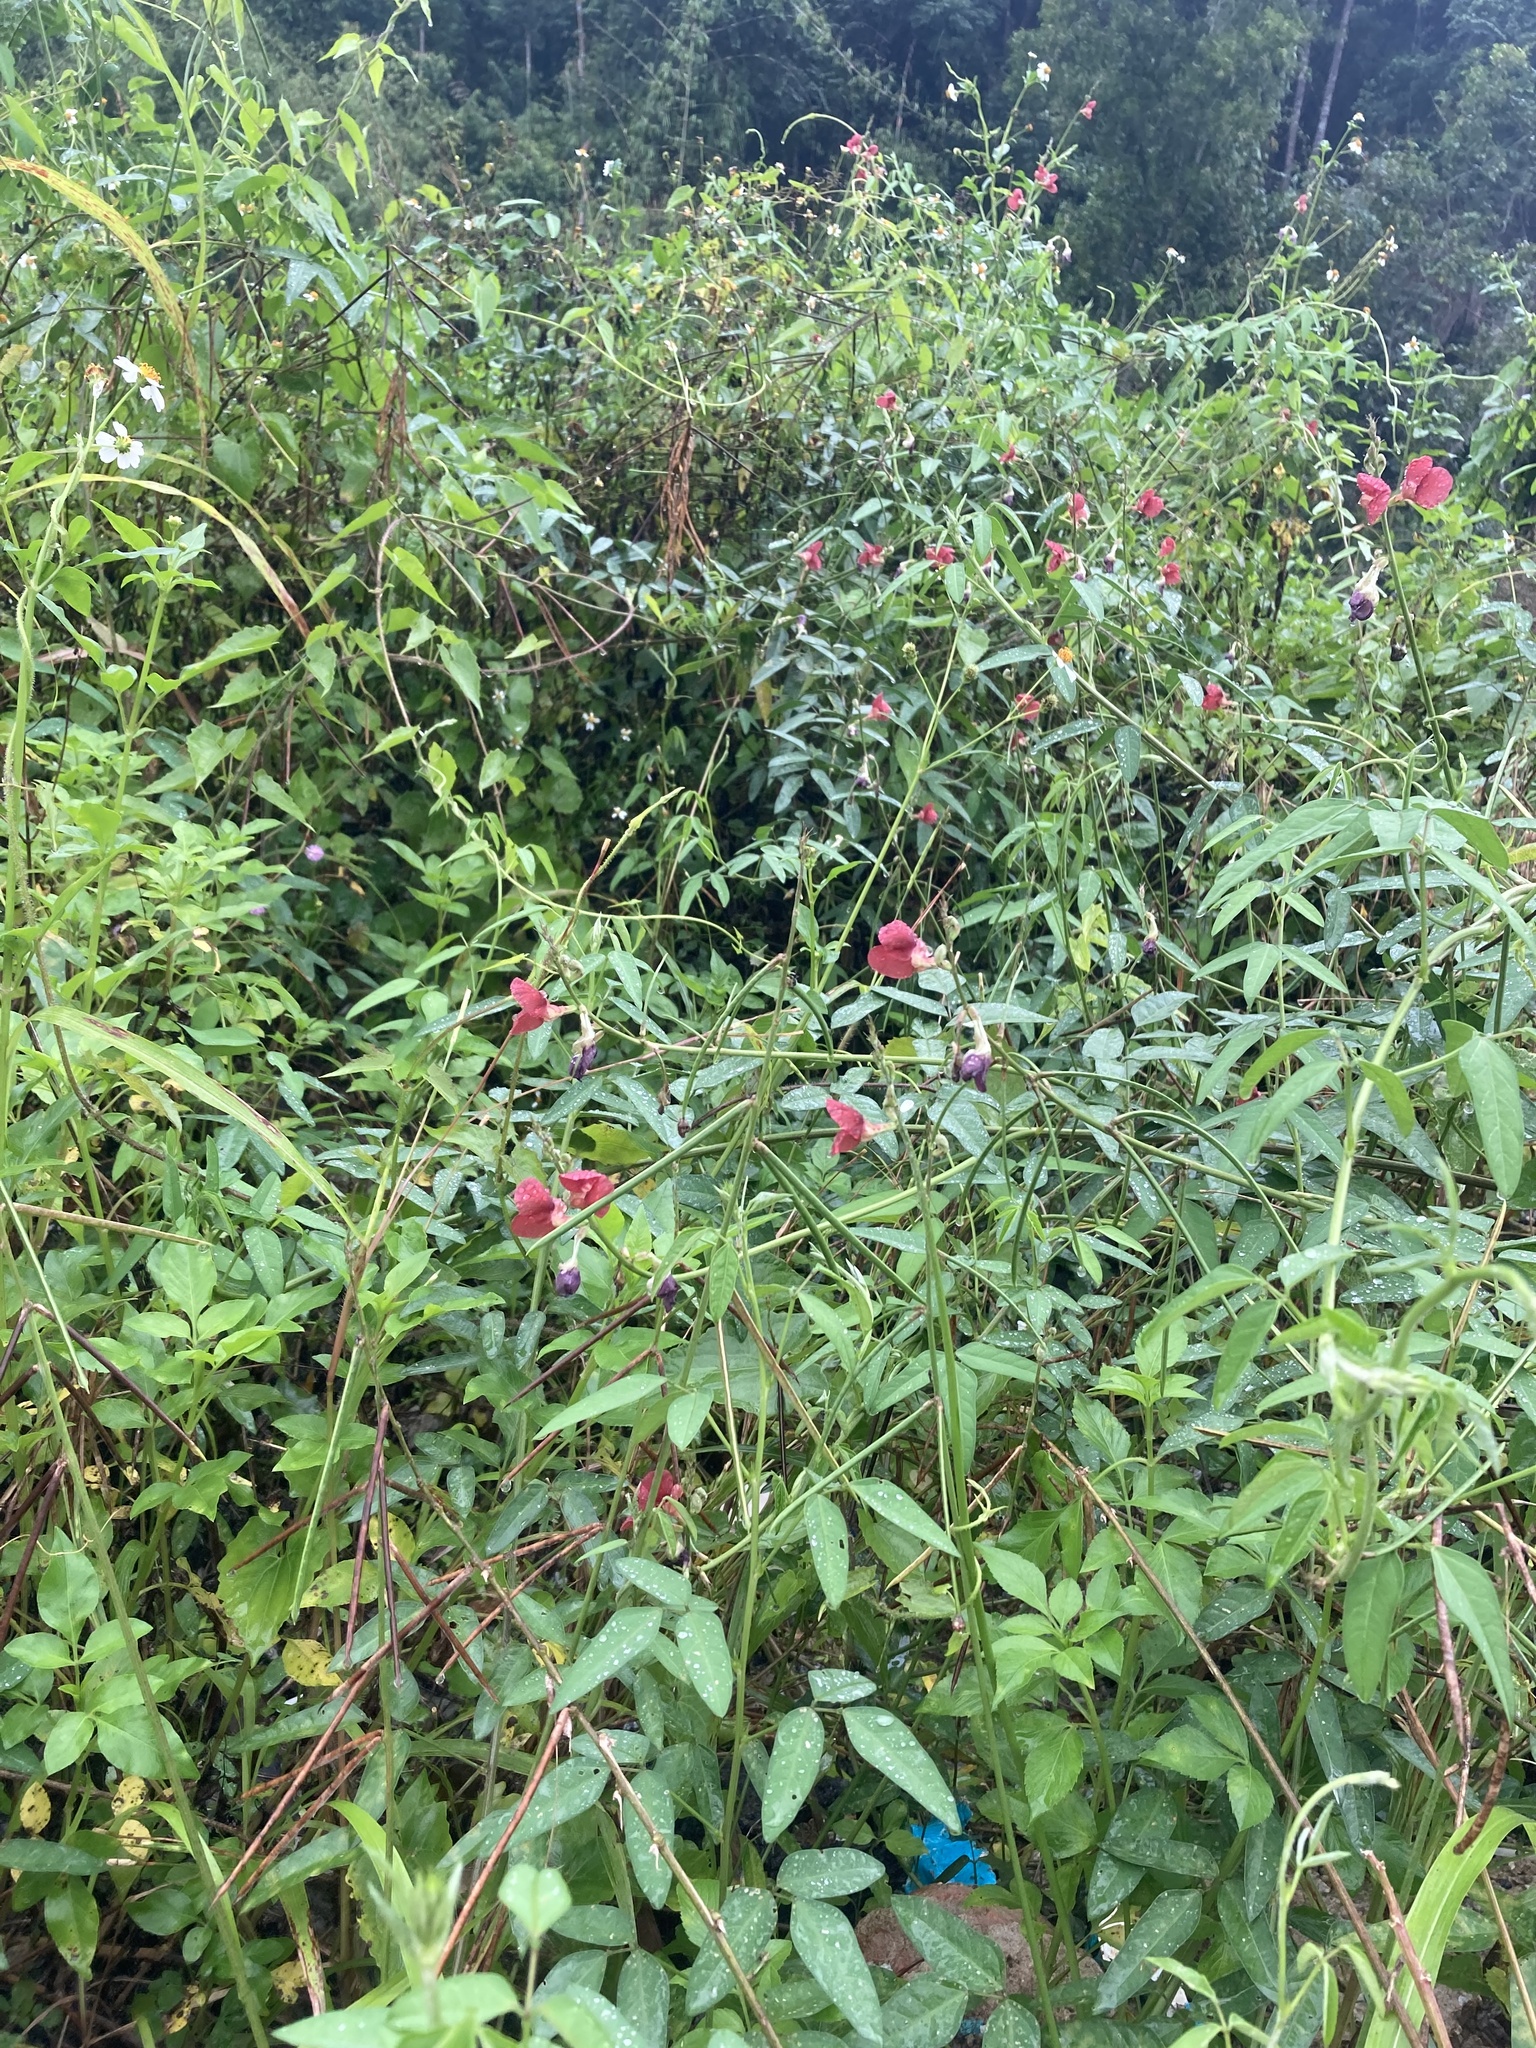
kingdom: Plantae
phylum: Tracheophyta
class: Magnoliopsida
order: Fabales
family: Fabaceae
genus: Macroptilium
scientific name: Macroptilium lathyroides
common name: Wild bushbean
